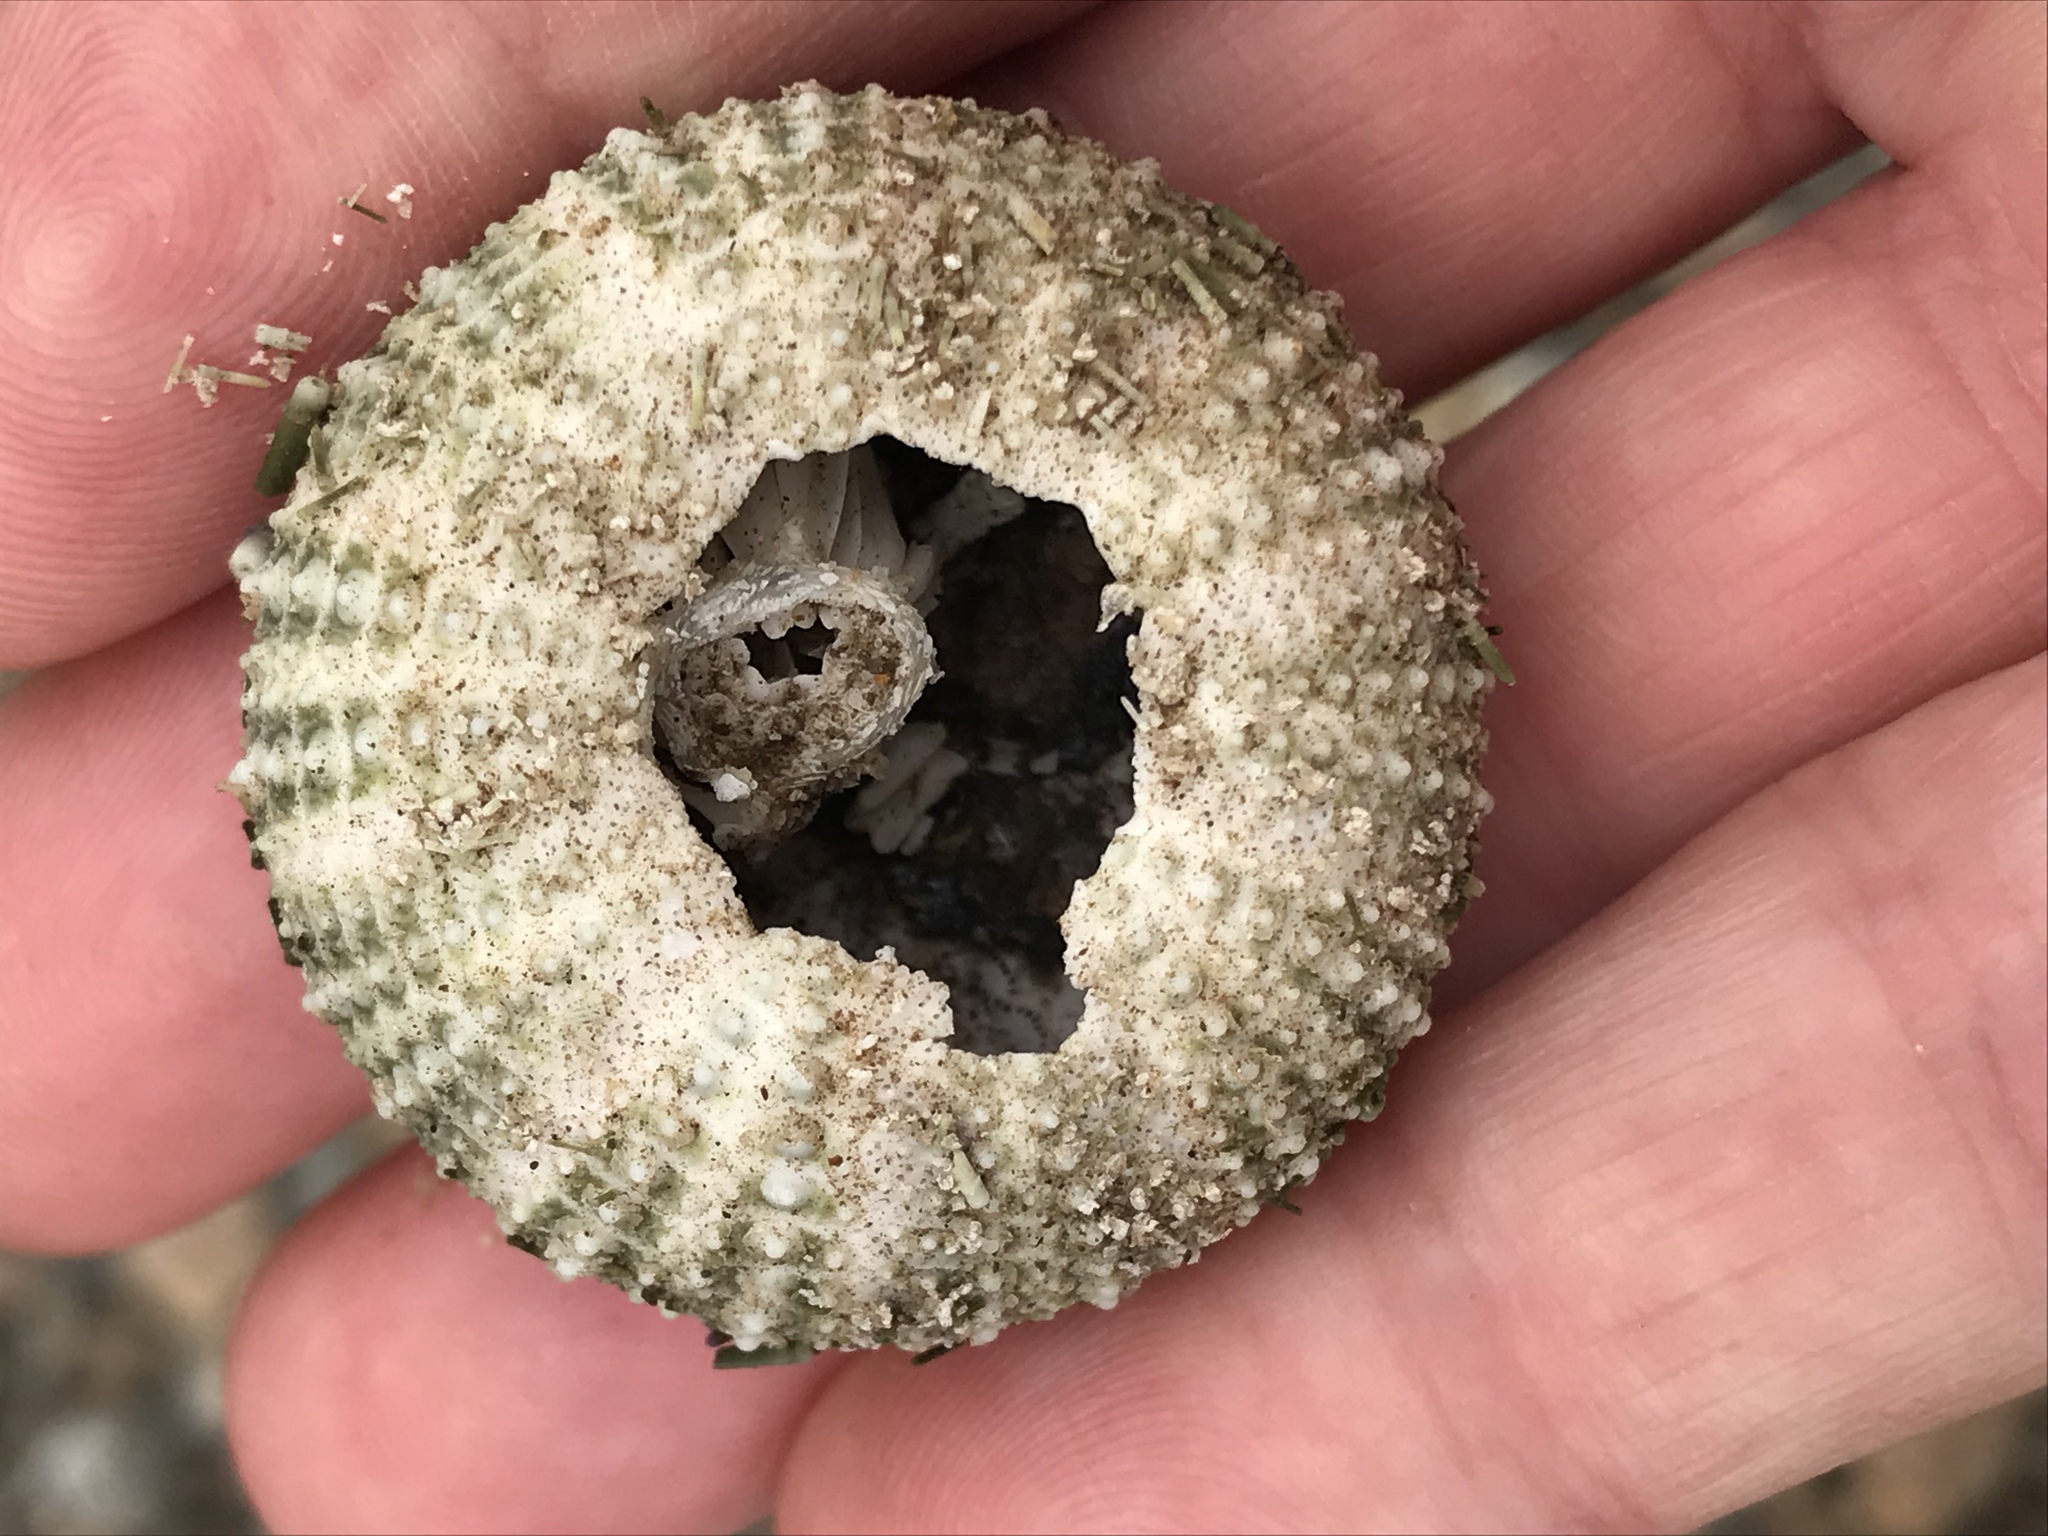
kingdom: Animalia
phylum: Echinodermata
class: Echinoidea
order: Camarodonta
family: Strongylocentrotidae
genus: Strongylocentrotus
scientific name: Strongylocentrotus purpuratus
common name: Purple sea urchin
